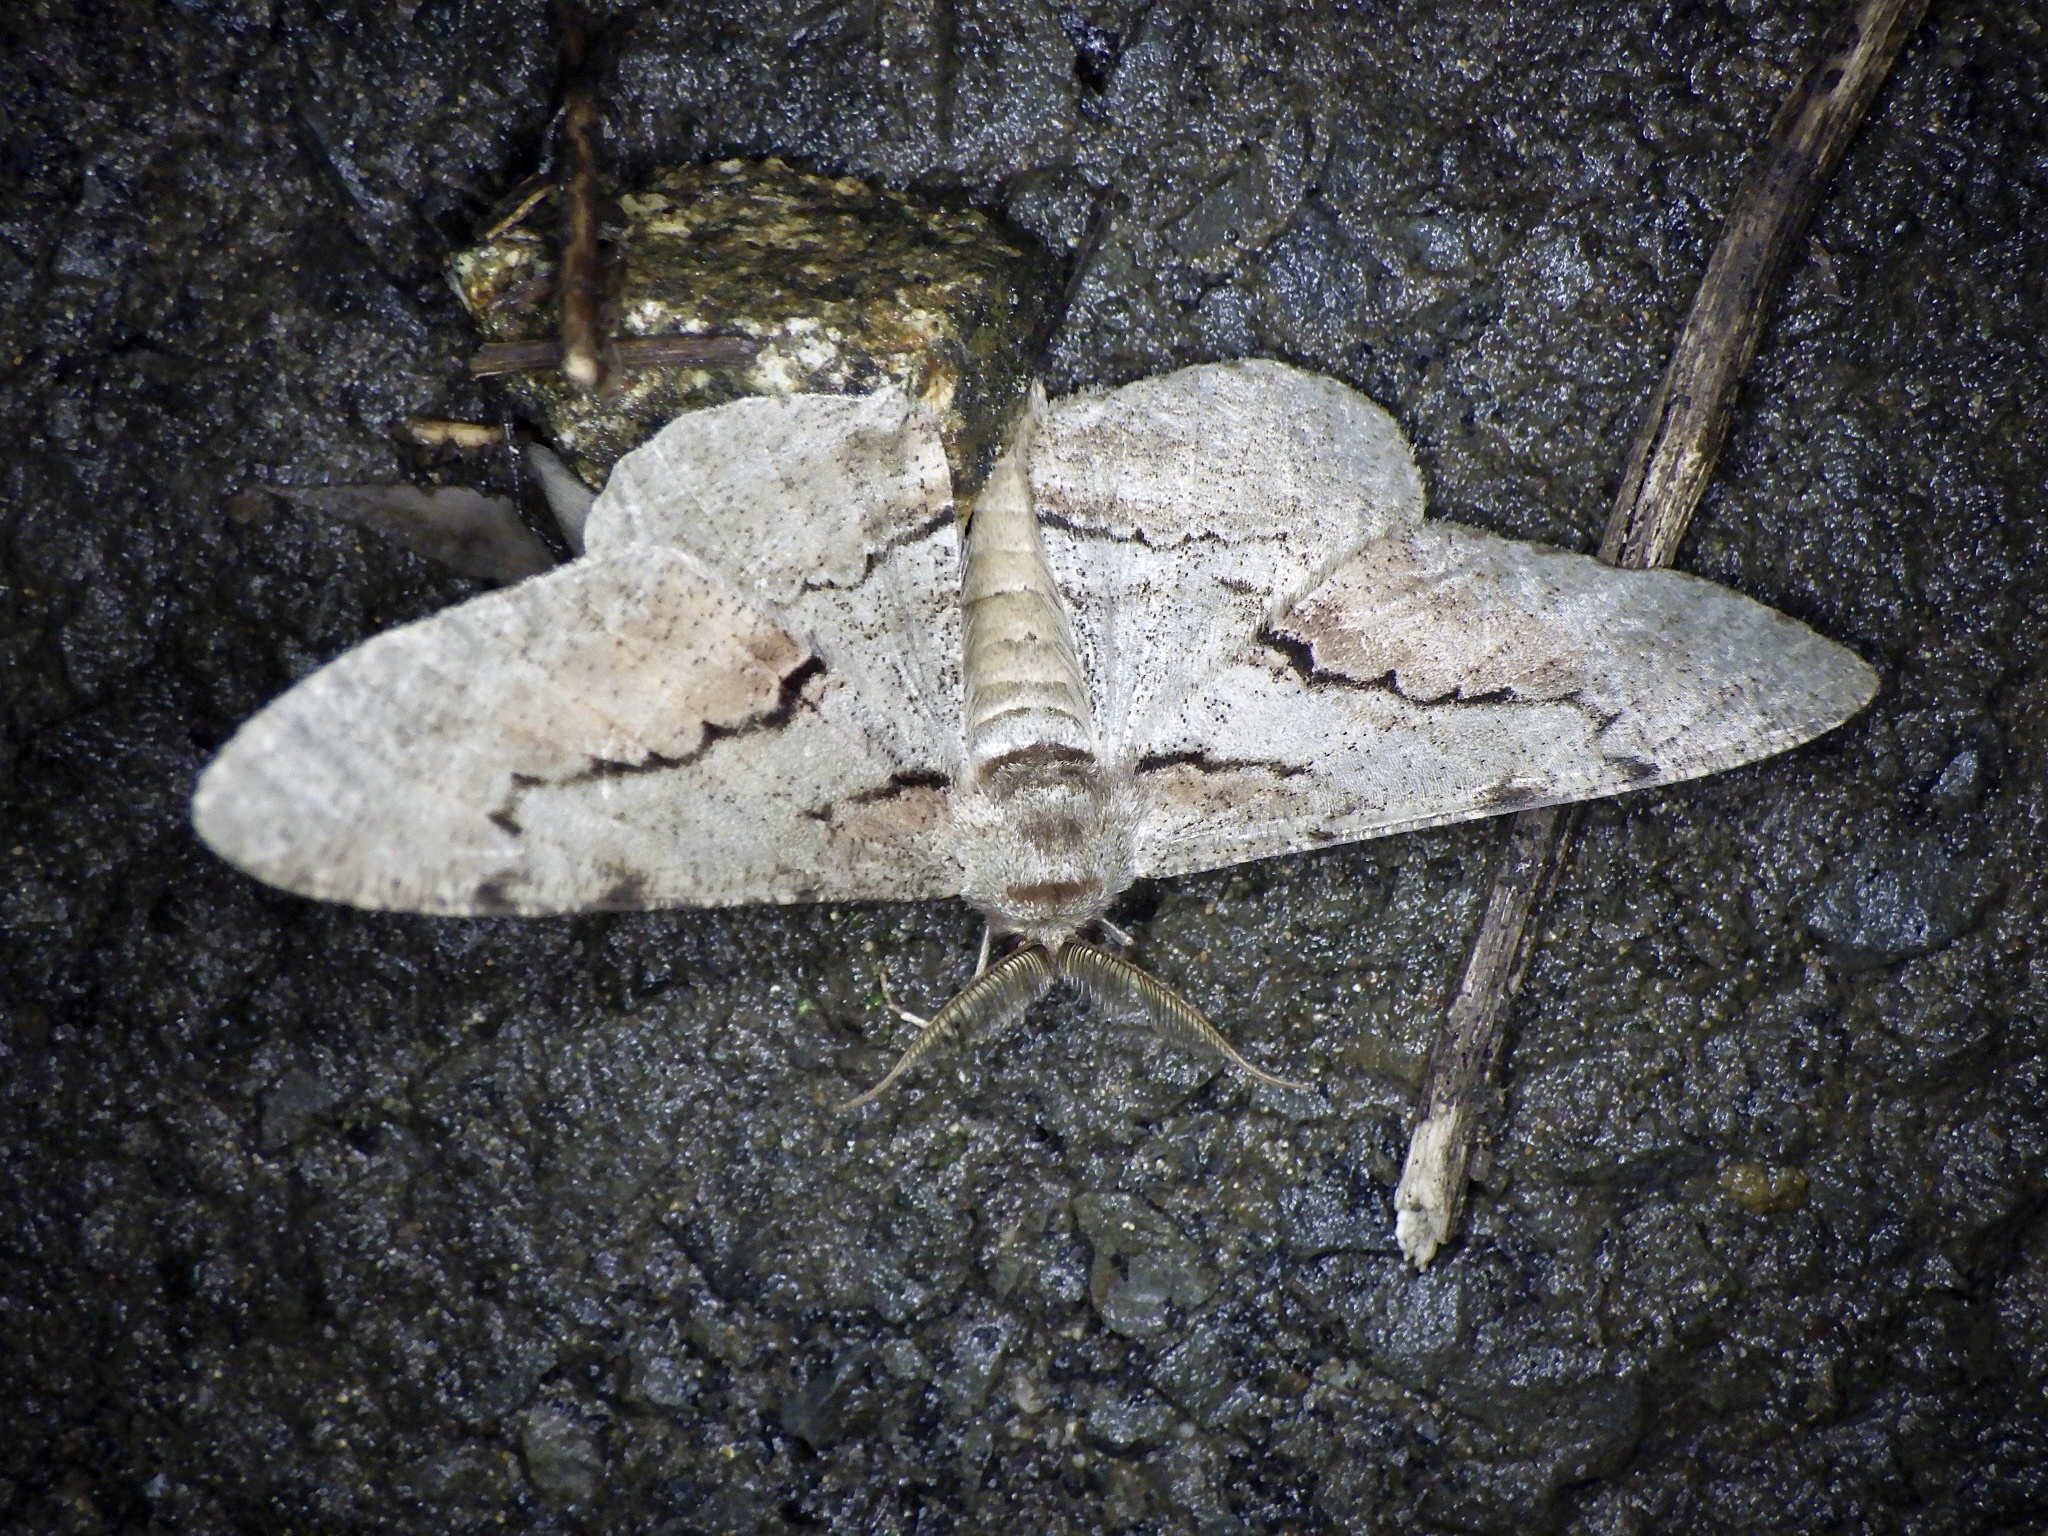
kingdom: Animalia
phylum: Arthropoda
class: Insecta
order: Lepidoptera
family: Geometridae
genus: Phthonosema
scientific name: Phthonosema tendinosaria
